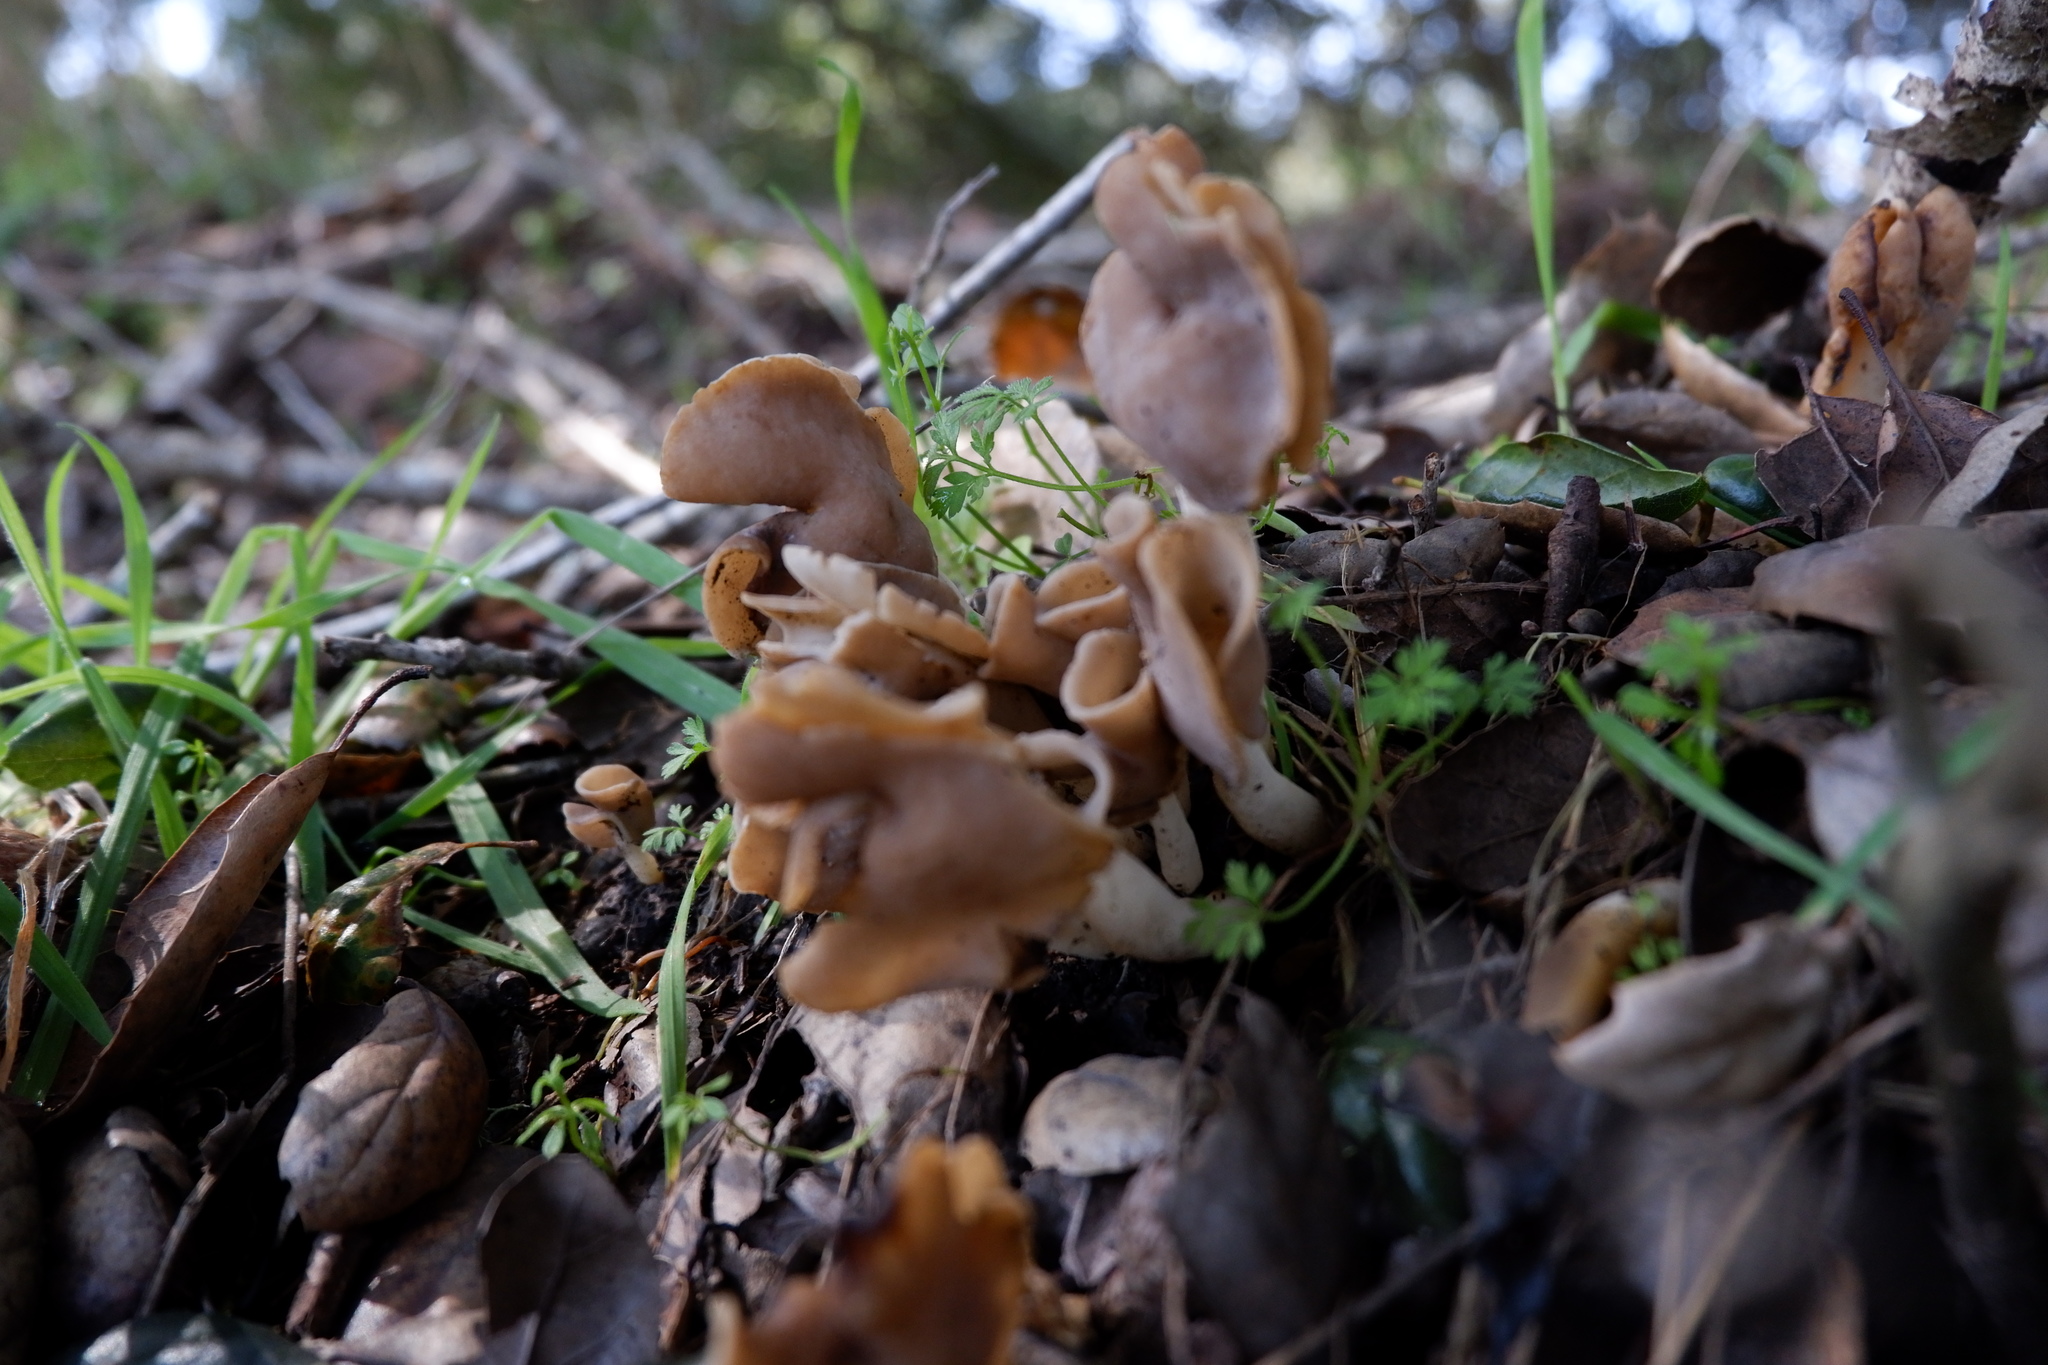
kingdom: Fungi
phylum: Ascomycota
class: Pezizomycetes
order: Pezizales
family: Helvellaceae
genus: Helvella
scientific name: Helvella compressa
